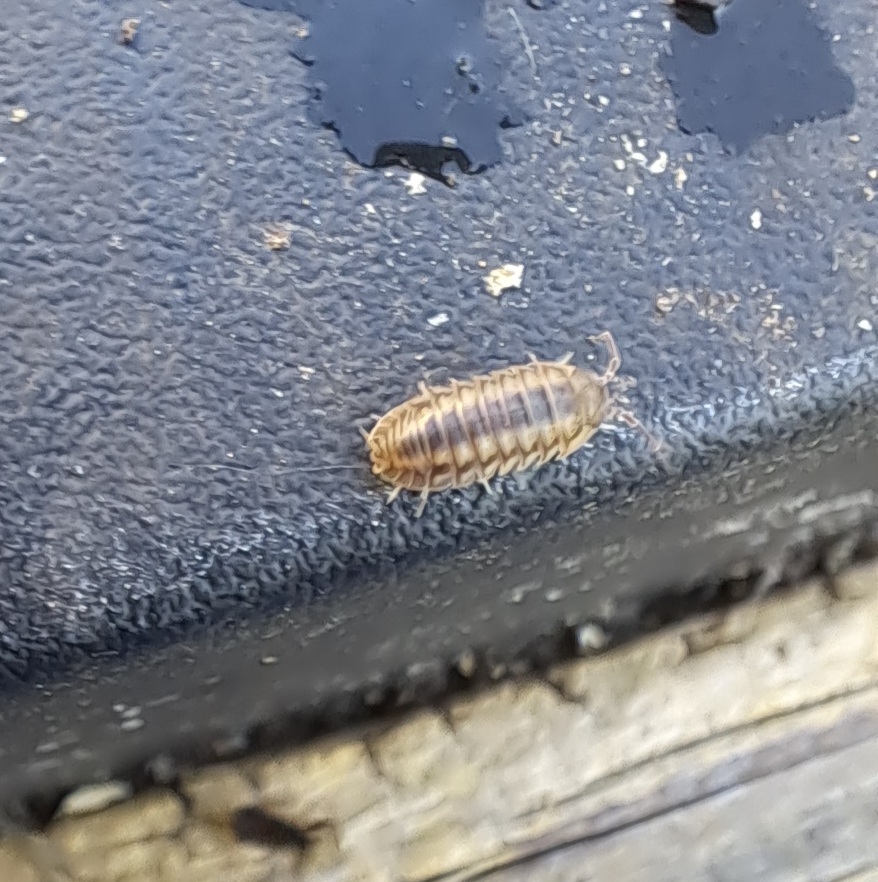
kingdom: Animalia
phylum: Arthropoda
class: Malacostraca
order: Isopoda
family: Armadillidiidae
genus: Armadillidium
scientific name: Armadillidium nasatum
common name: Isopod
